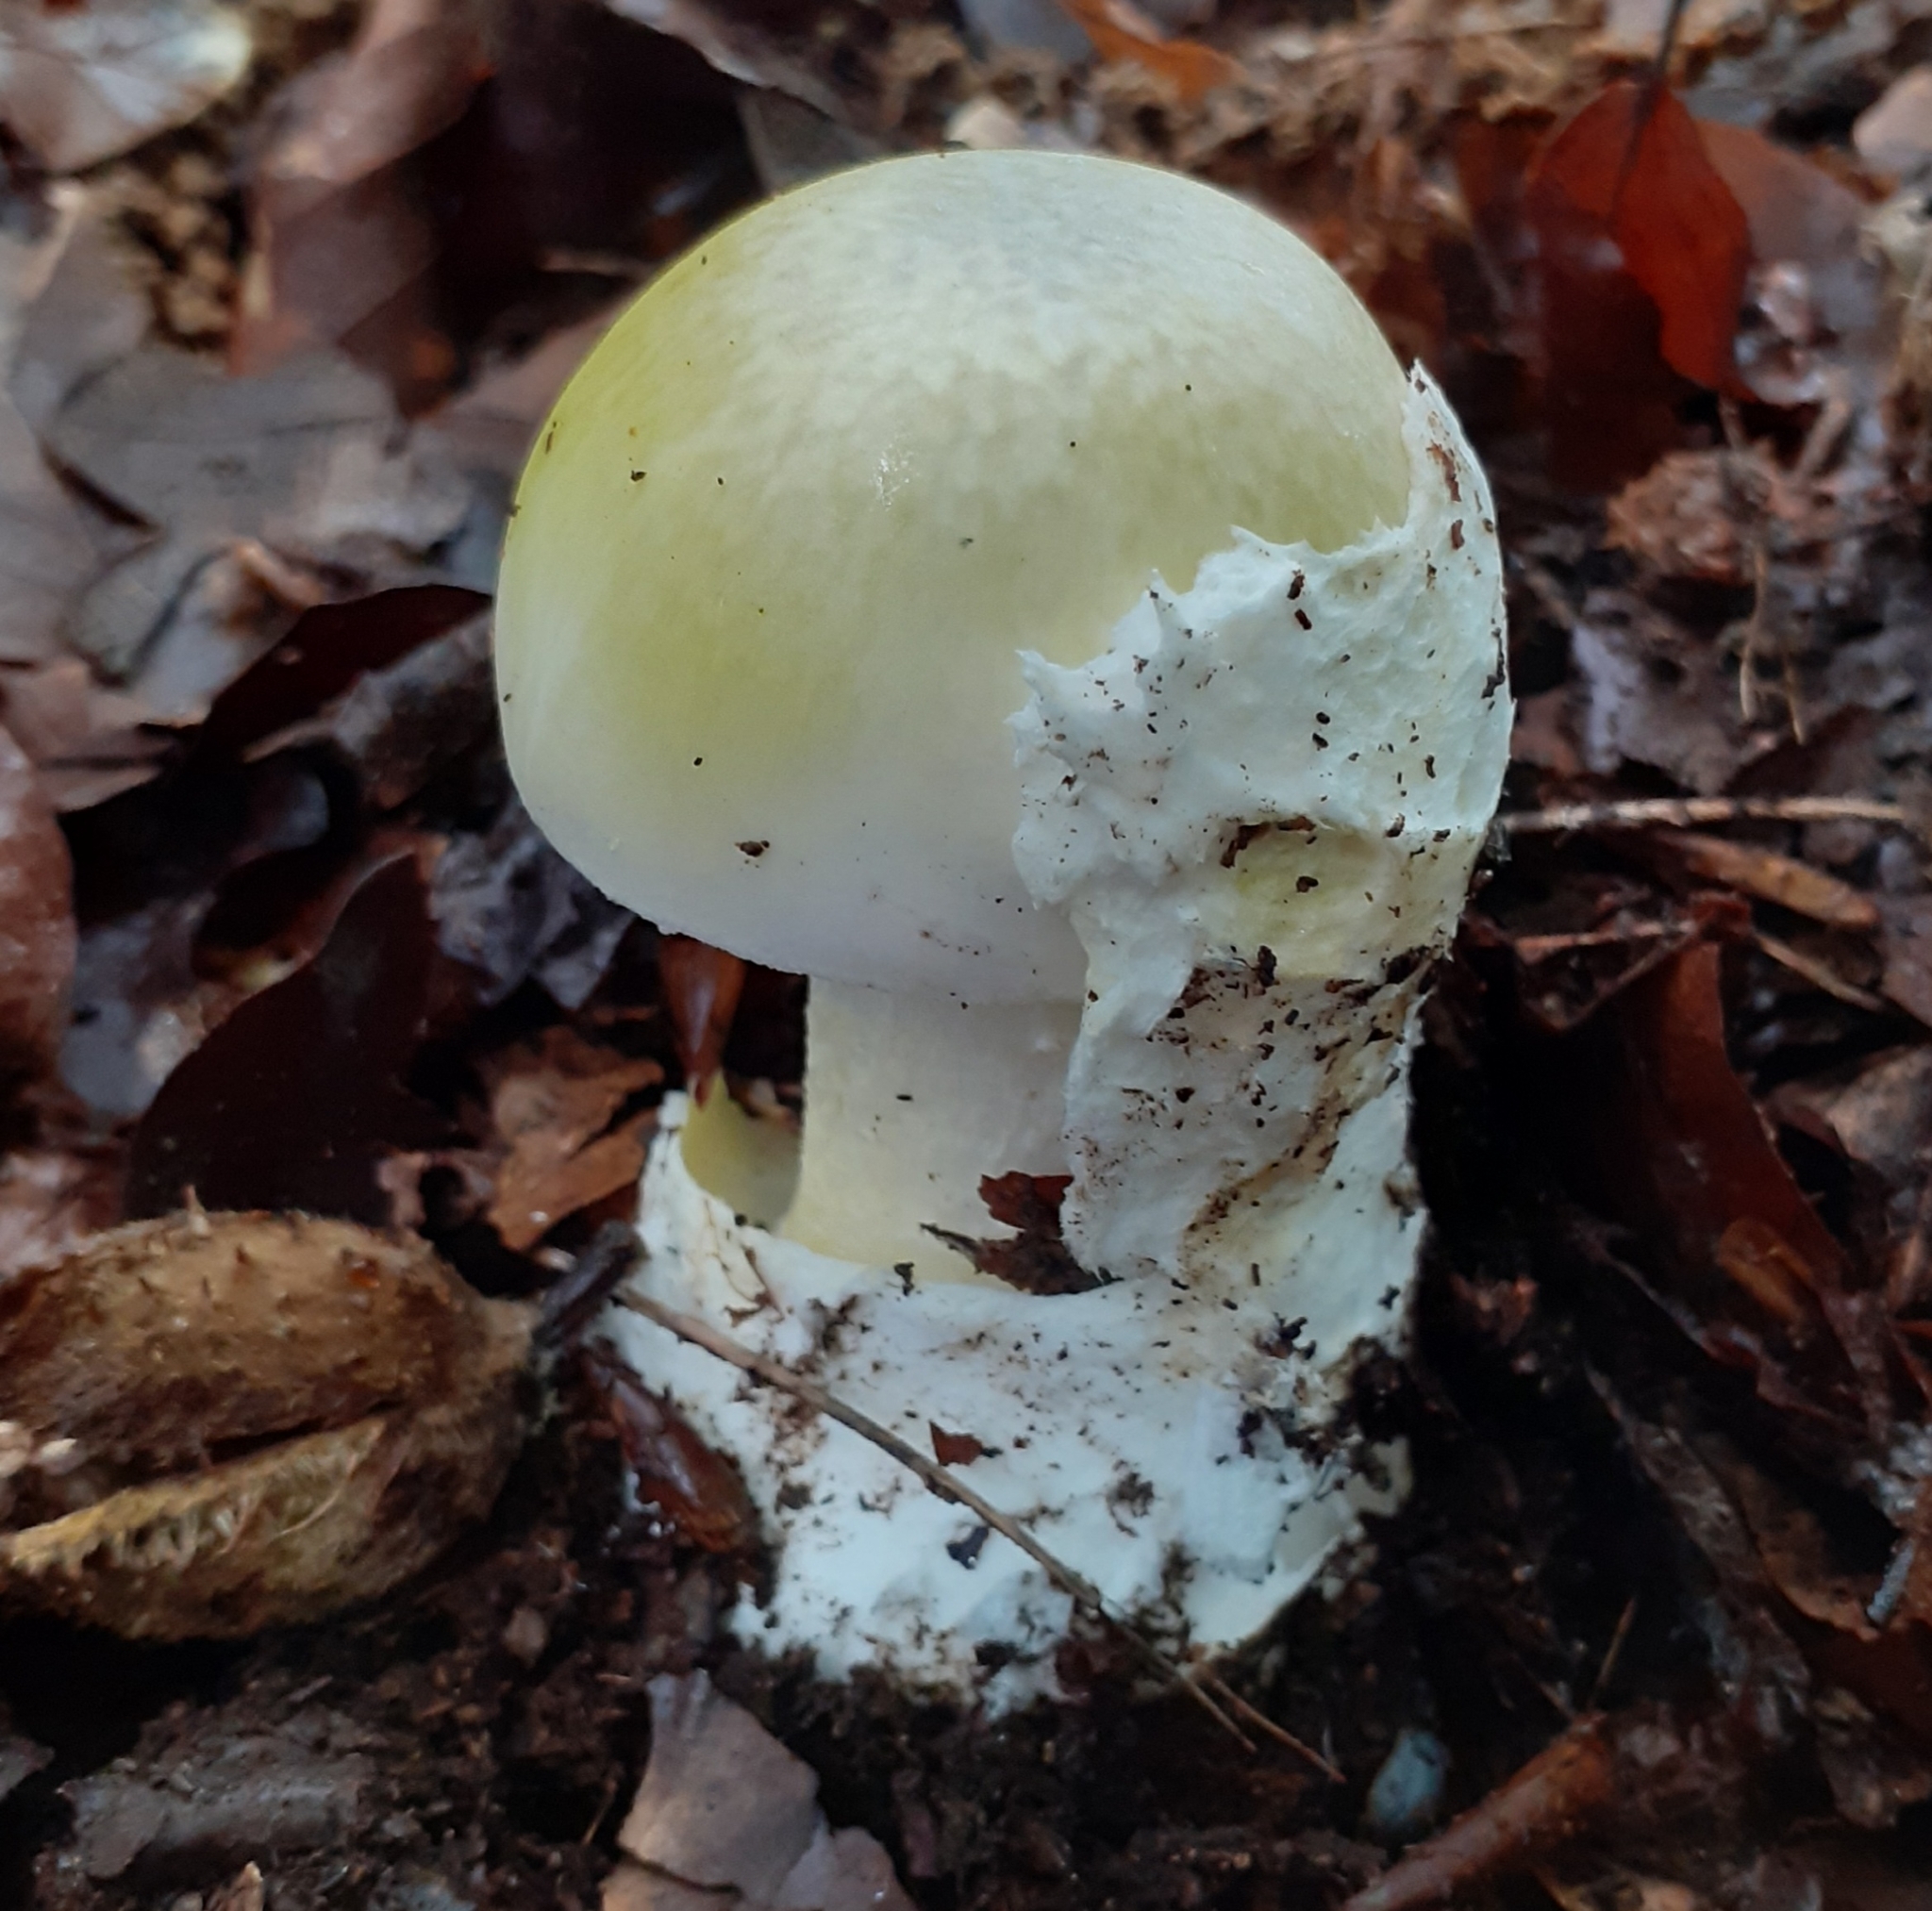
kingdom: Fungi
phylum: Basidiomycota
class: Agaricomycetes
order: Agaricales
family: Amanitaceae
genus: Amanita
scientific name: Amanita phalloides
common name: Death cap
